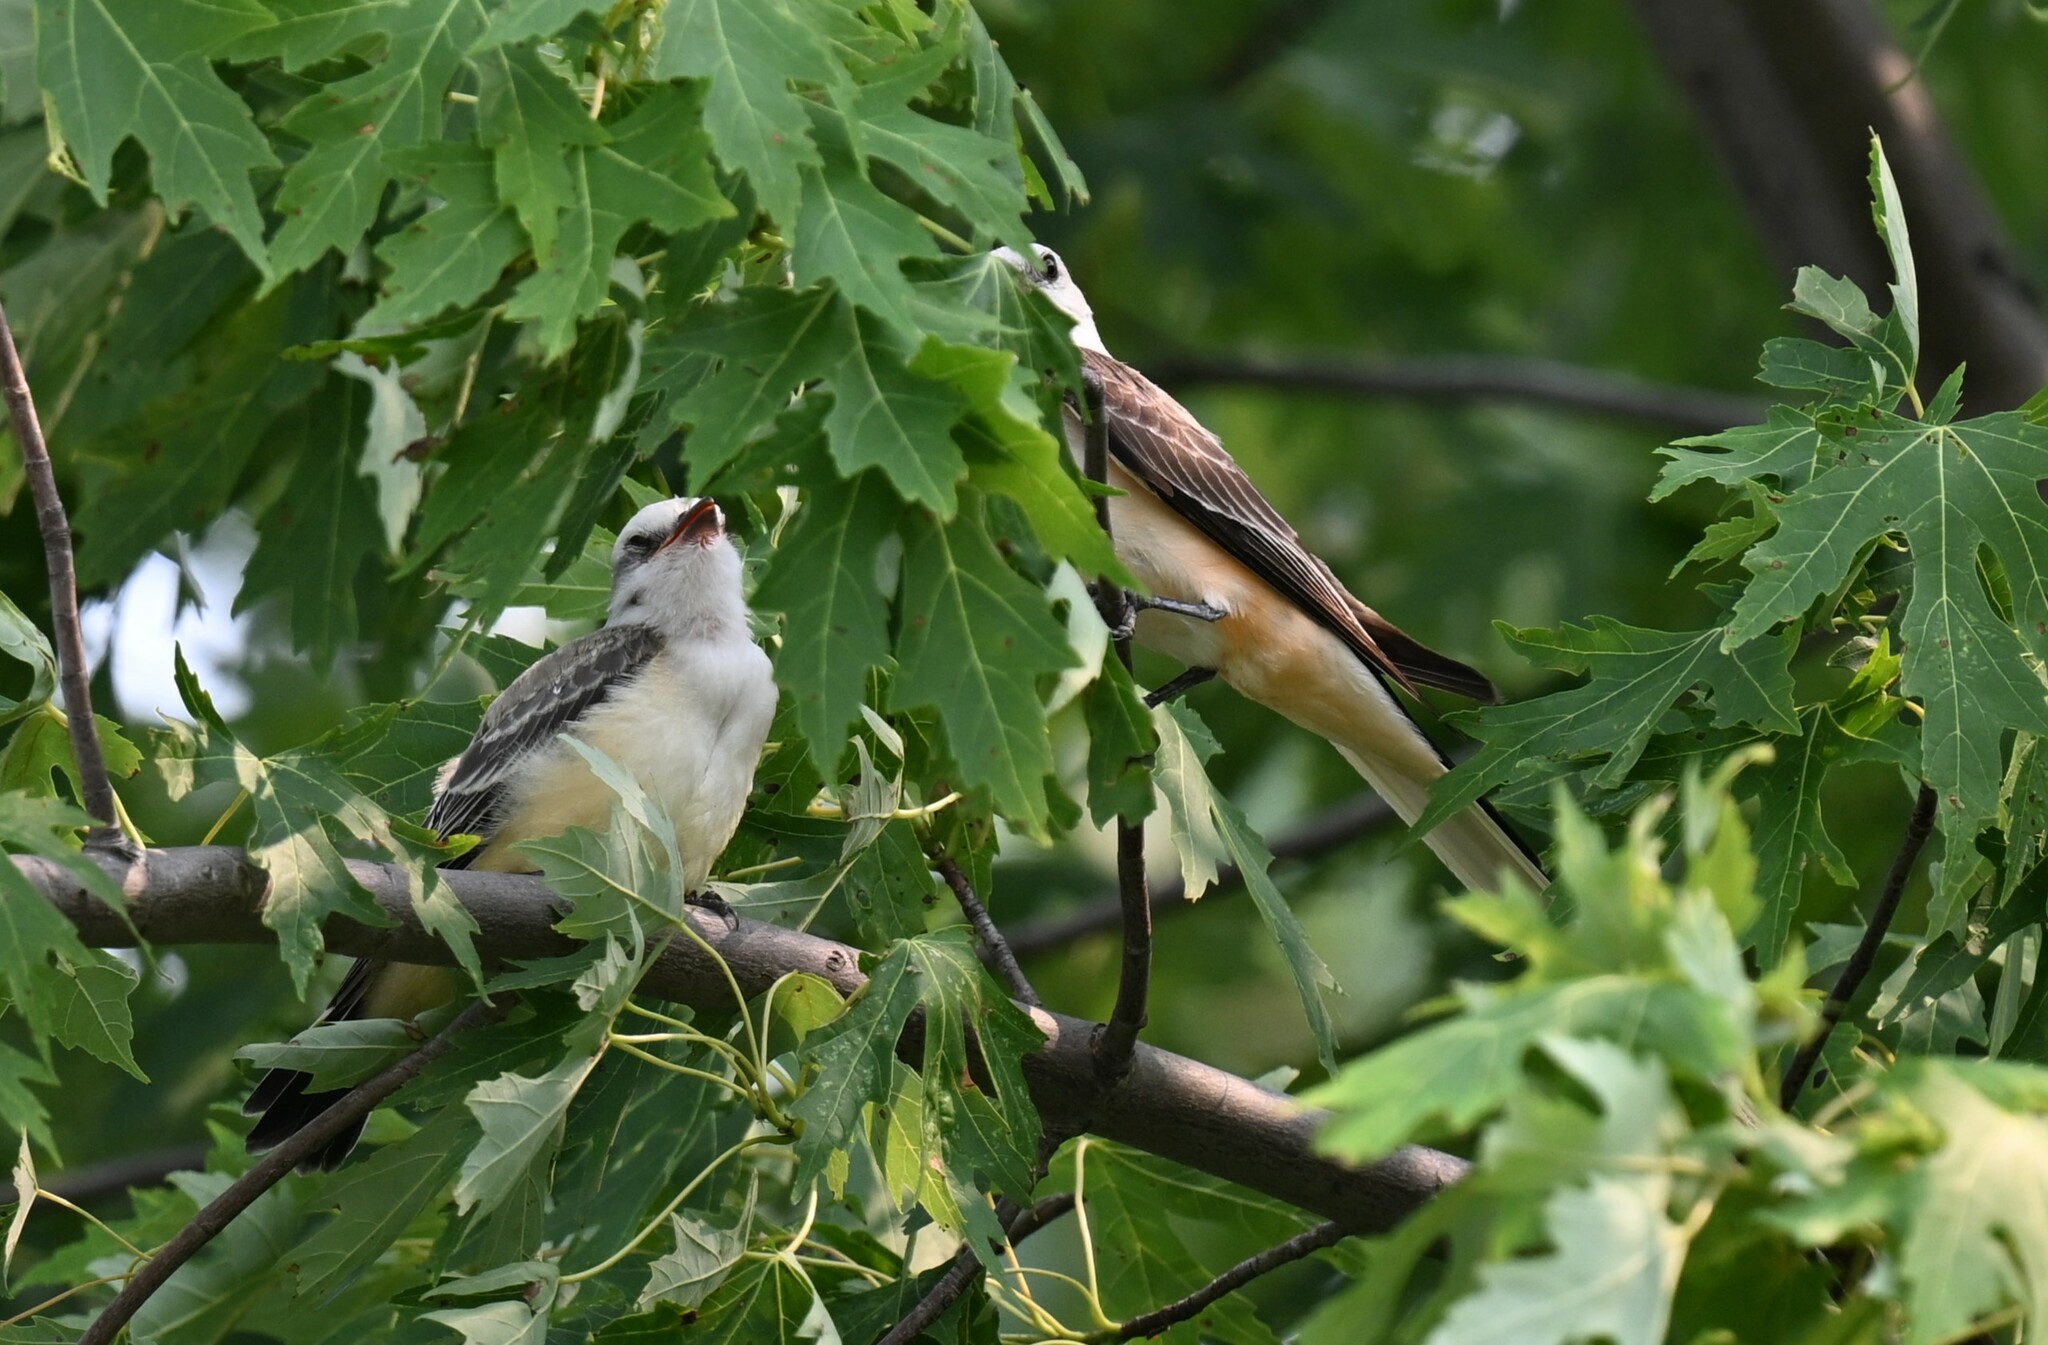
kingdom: Animalia
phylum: Chordata
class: Aves
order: Passeriformes
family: Tyrannidae
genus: Tyrannus
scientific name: Tyrannus forficatus
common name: Scissor-tailed flycatcher
